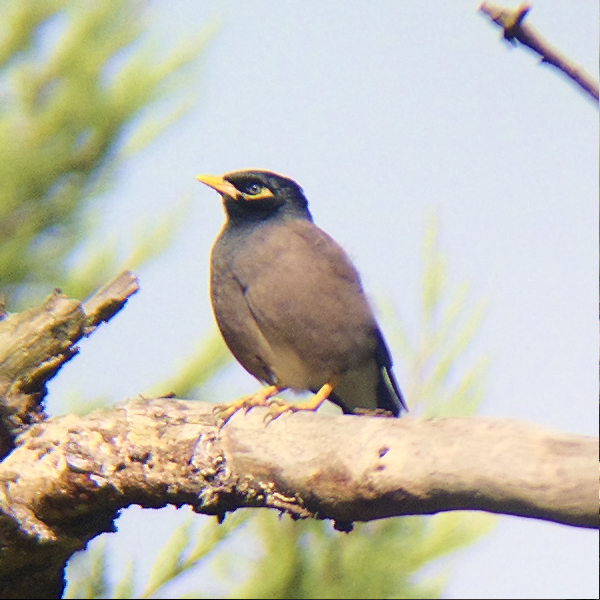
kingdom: Animalia
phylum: Chordata
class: Aves
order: Passeriformes
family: Sturnidae
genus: Acridotheres
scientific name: Acridotheres tristis
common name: Common myna
